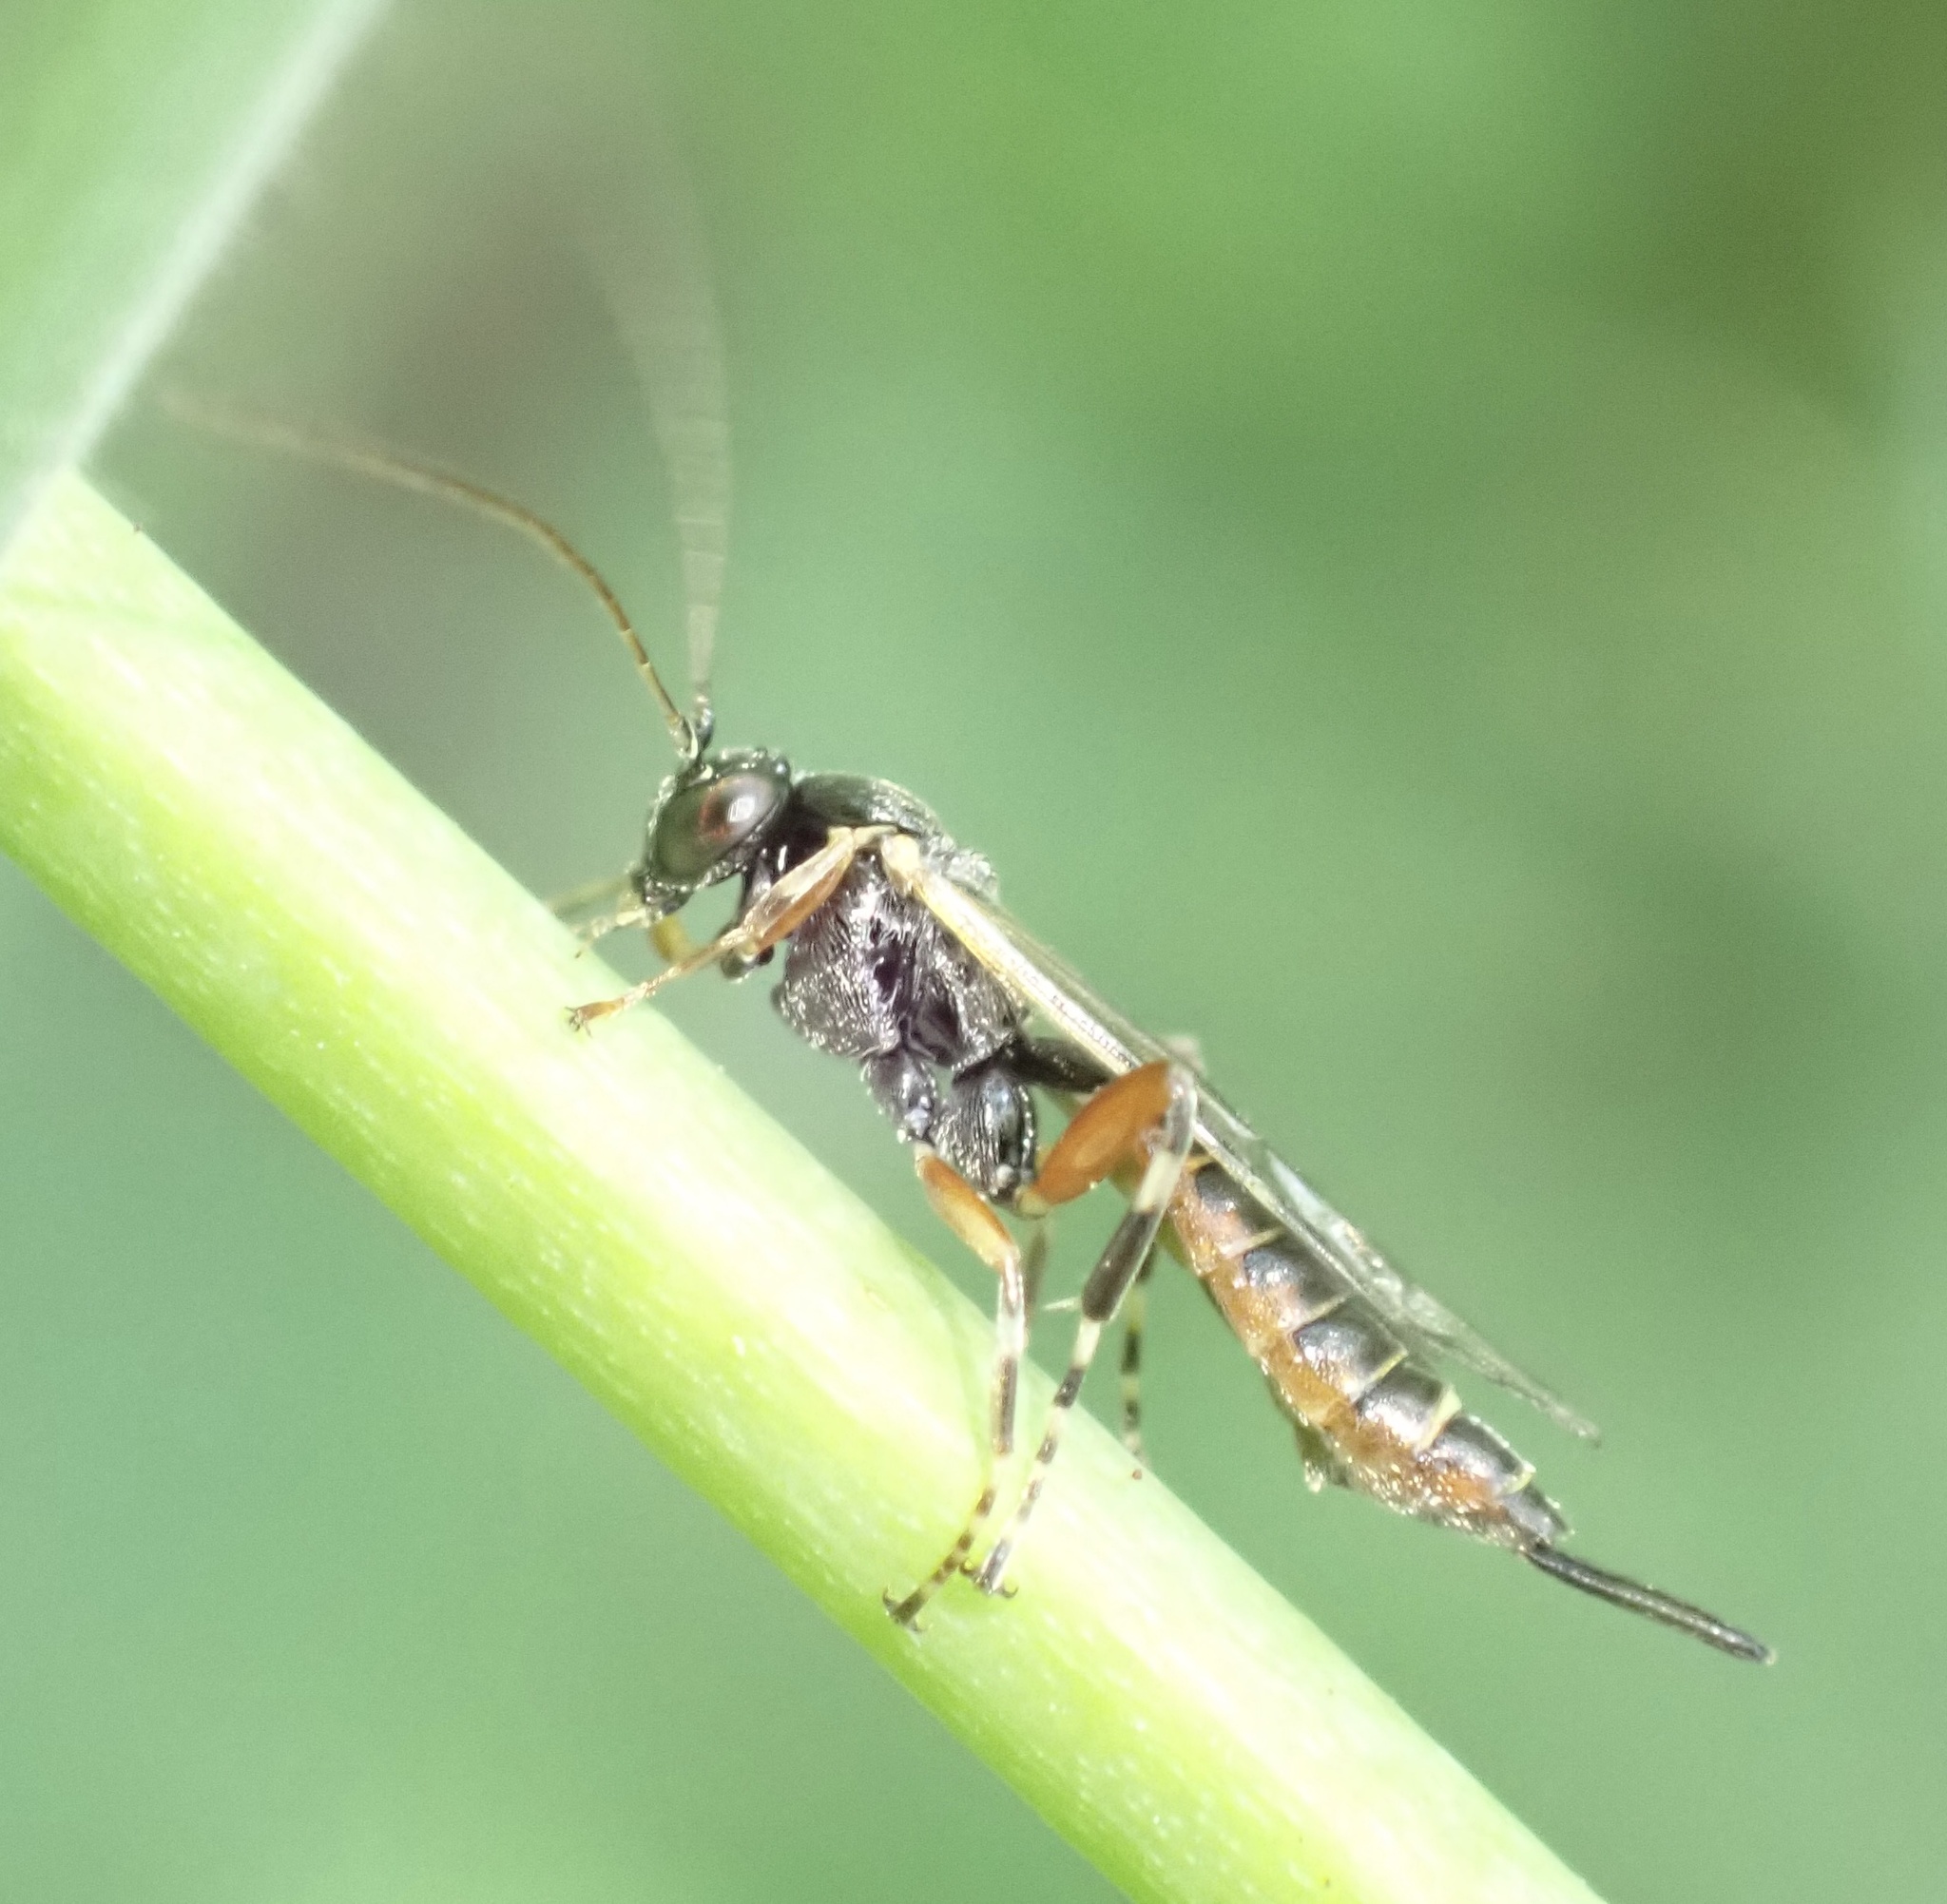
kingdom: Animalia
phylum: Arthropoda
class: Insecta
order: Hymenoptera
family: Ichneumonidae
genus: Itoplectis
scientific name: Itoplectis maculator
